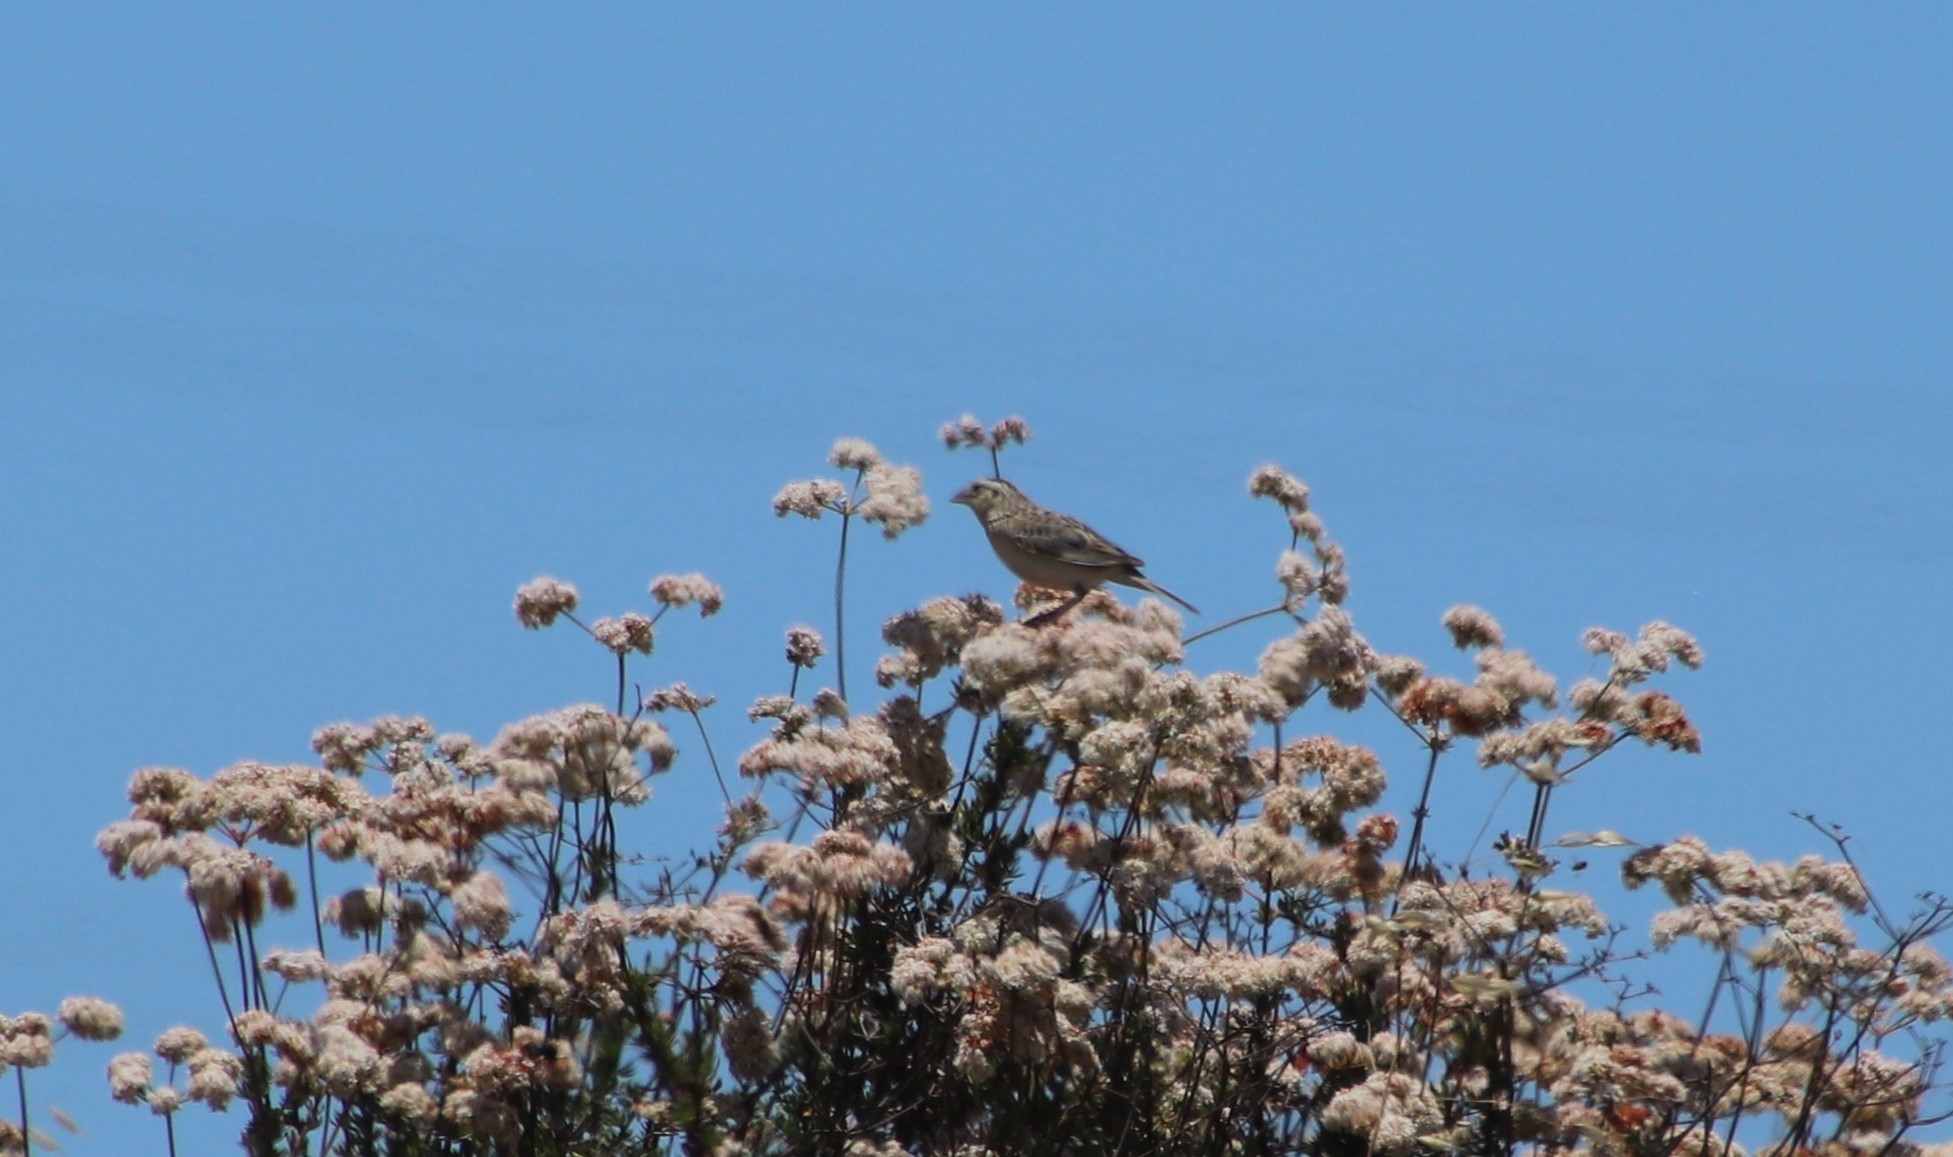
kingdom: Animalia
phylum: Chordata
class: Aves
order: Passeriformes
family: Passerellidae
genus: Ammodramus
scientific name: Ammodramus savannarum
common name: Grasshopper sparrow
